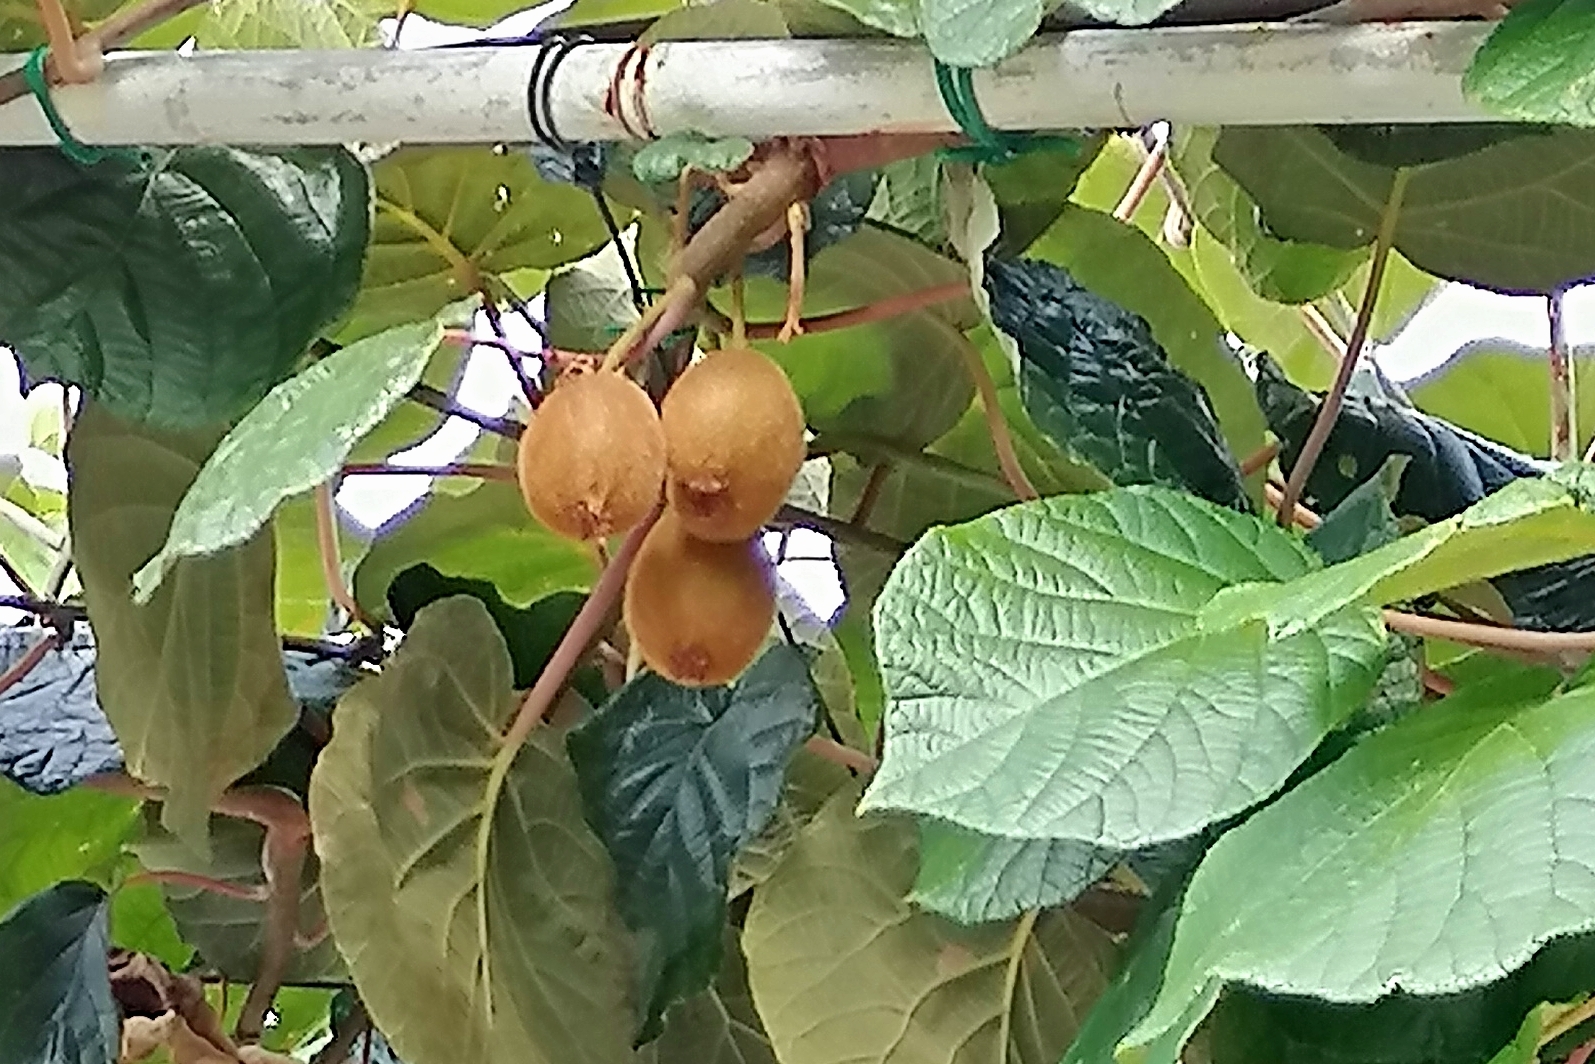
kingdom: Plantae
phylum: Tracheophyta
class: Magnoliopsida
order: Ericales
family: Actinidiaceae
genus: Actinidia
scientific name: Actinidia chinensis
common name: Kiwi
